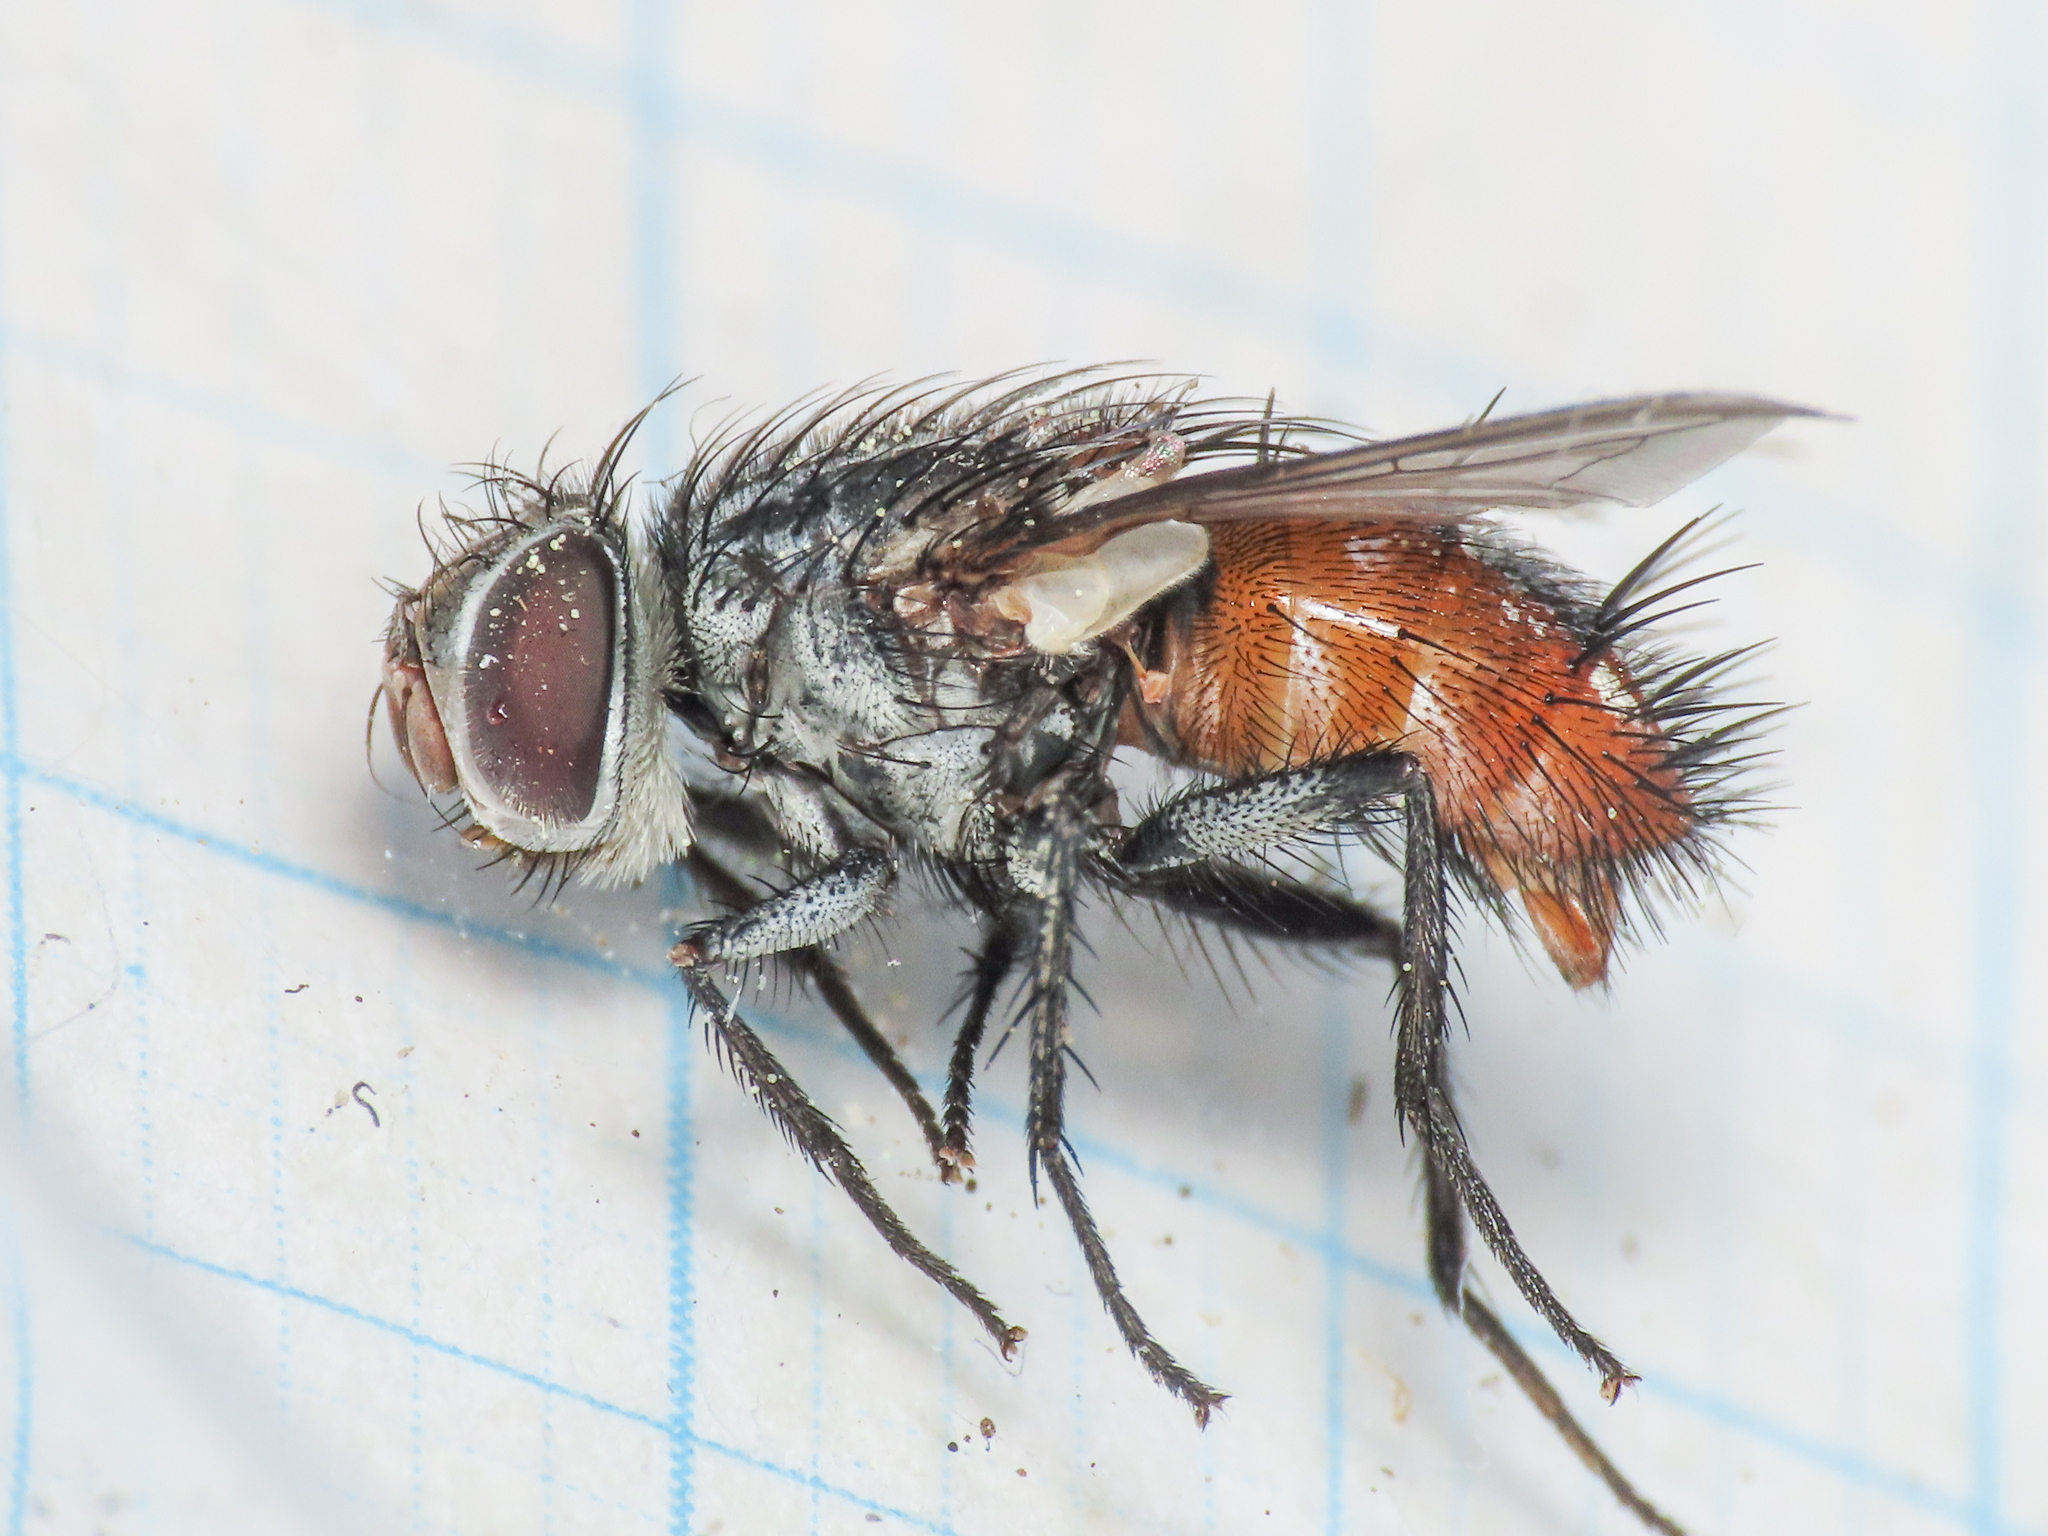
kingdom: Animalia
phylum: Arthropoda
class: Insecta
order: Diptera
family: Tachinidae
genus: Winthemia
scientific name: Winthemia rifiventris
